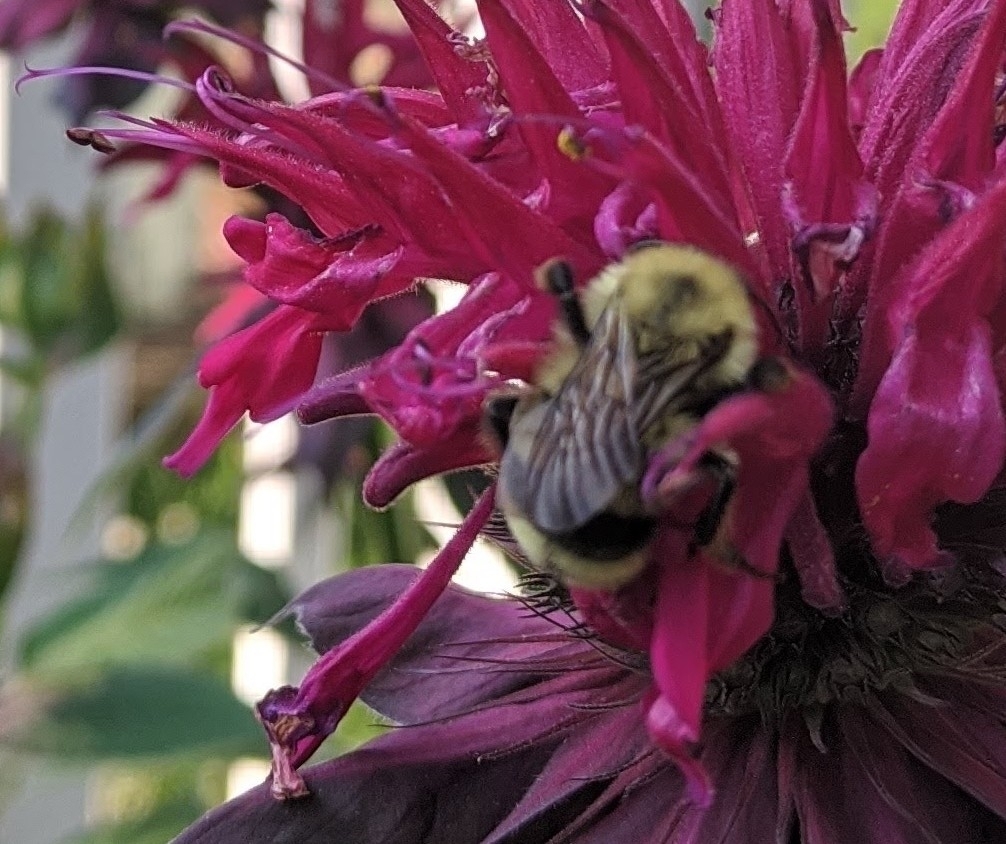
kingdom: Animalia
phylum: Arthropoda
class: Insecta
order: Hymenoptera
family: Apidae
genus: Bombus
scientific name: Bombus bimaculatus
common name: Two-spotted bumble bee
